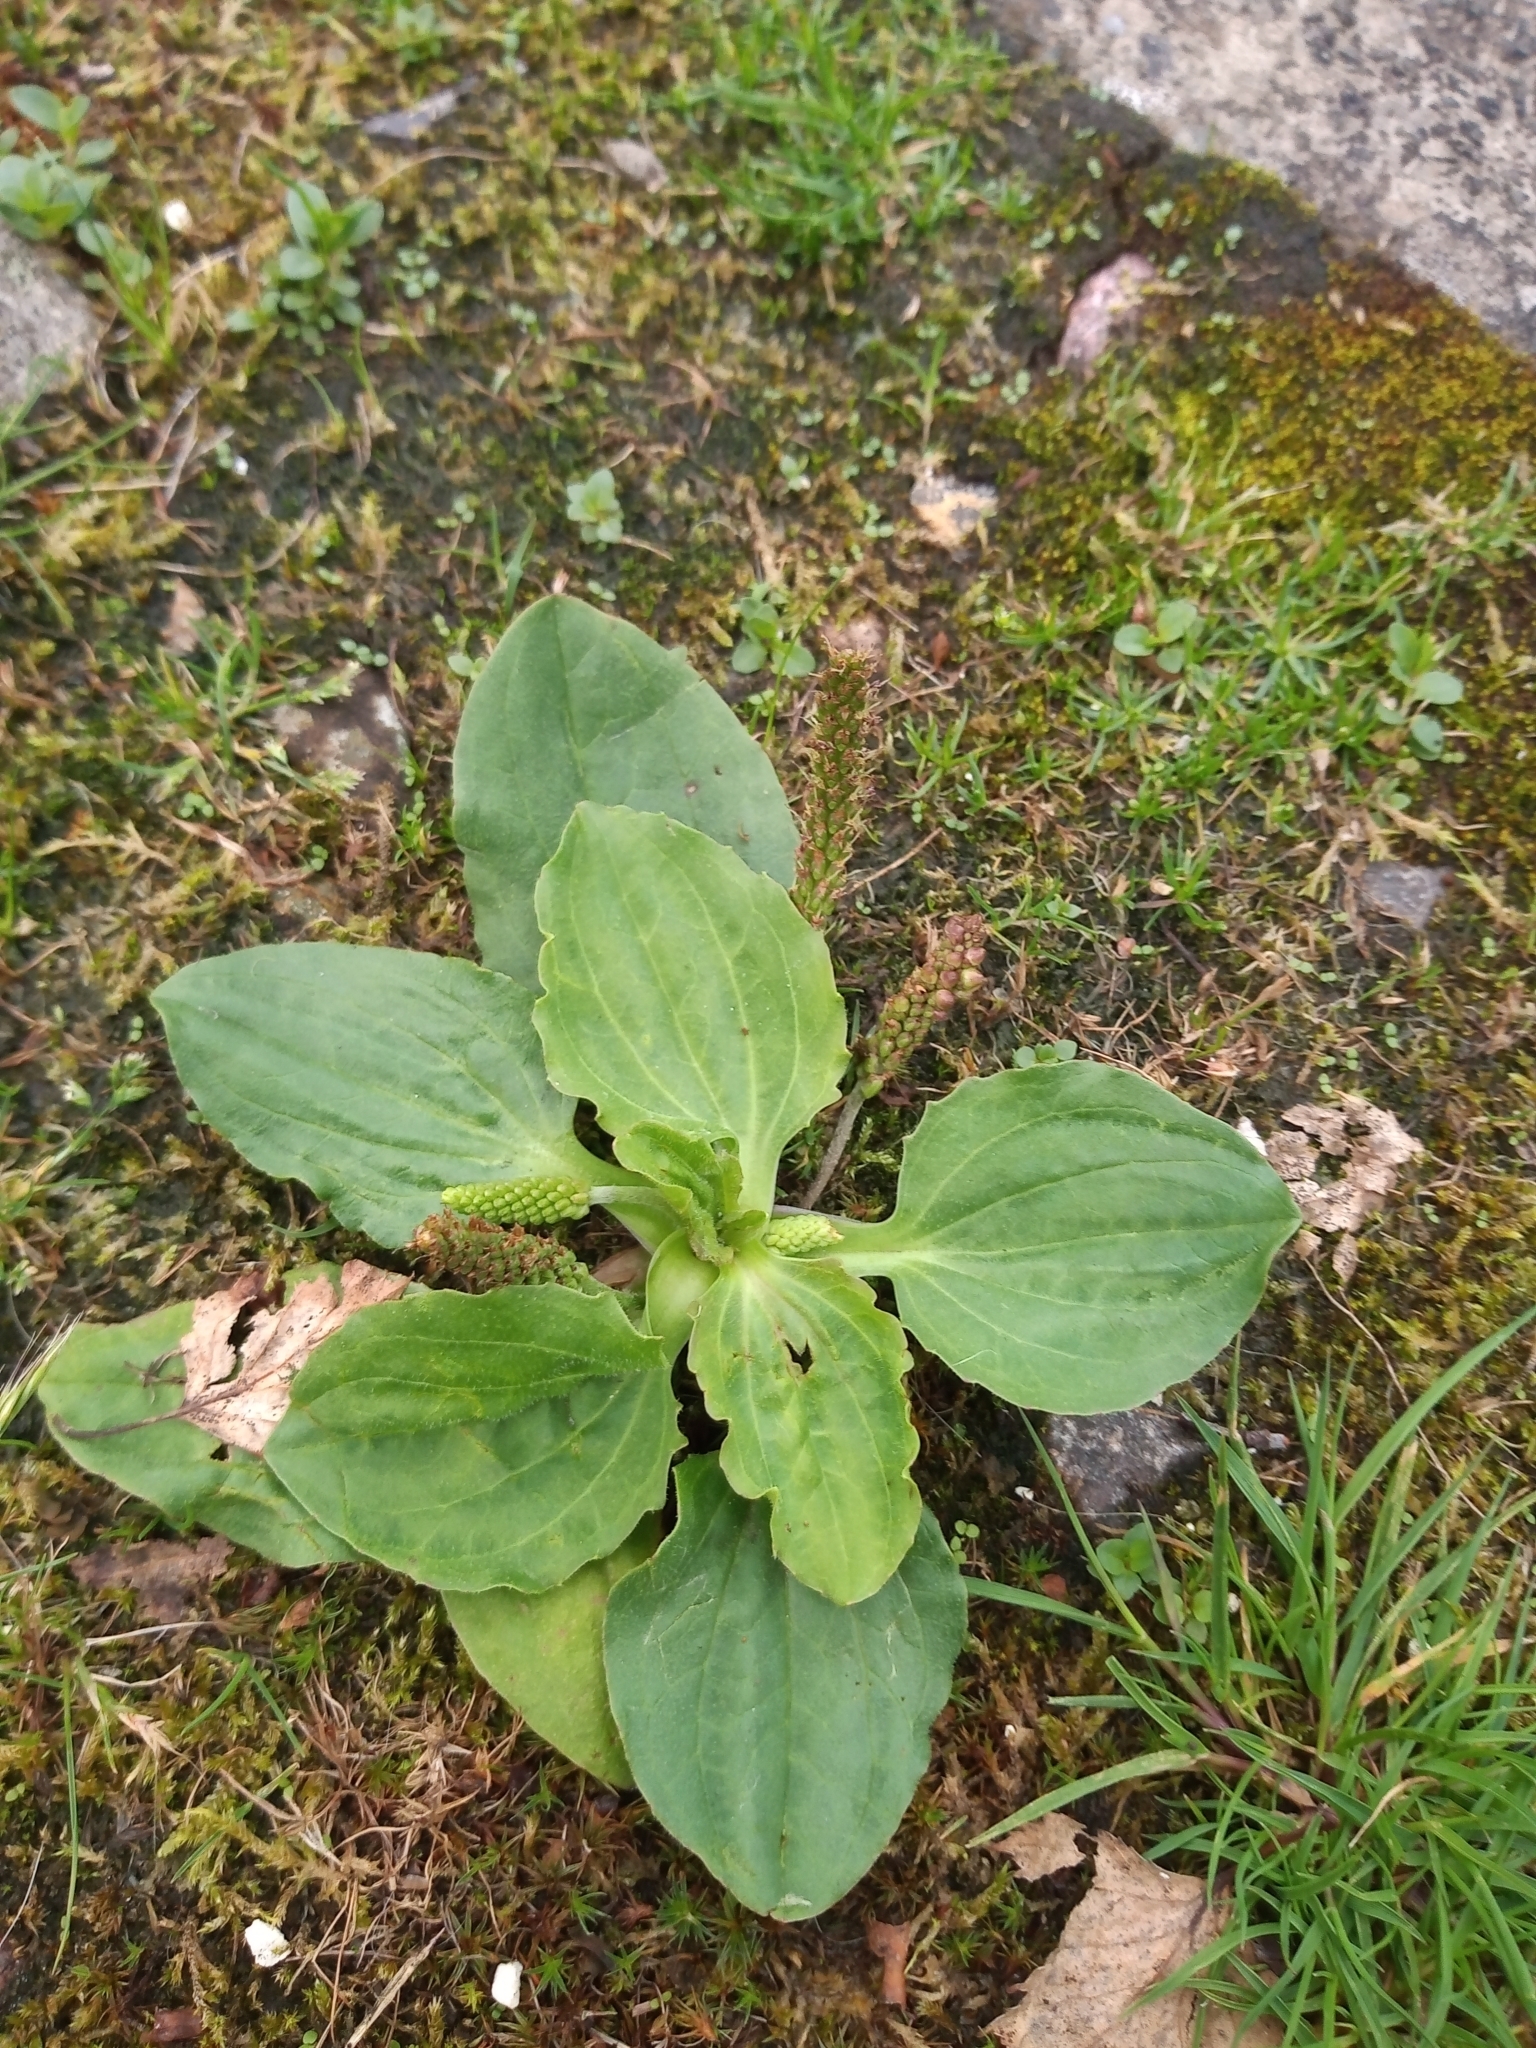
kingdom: Plantae
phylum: Tracheophyta
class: Magnoliopsida
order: Lamiales
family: Plantaginaceae
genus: Plantago
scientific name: Plantago major
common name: Common plantain
